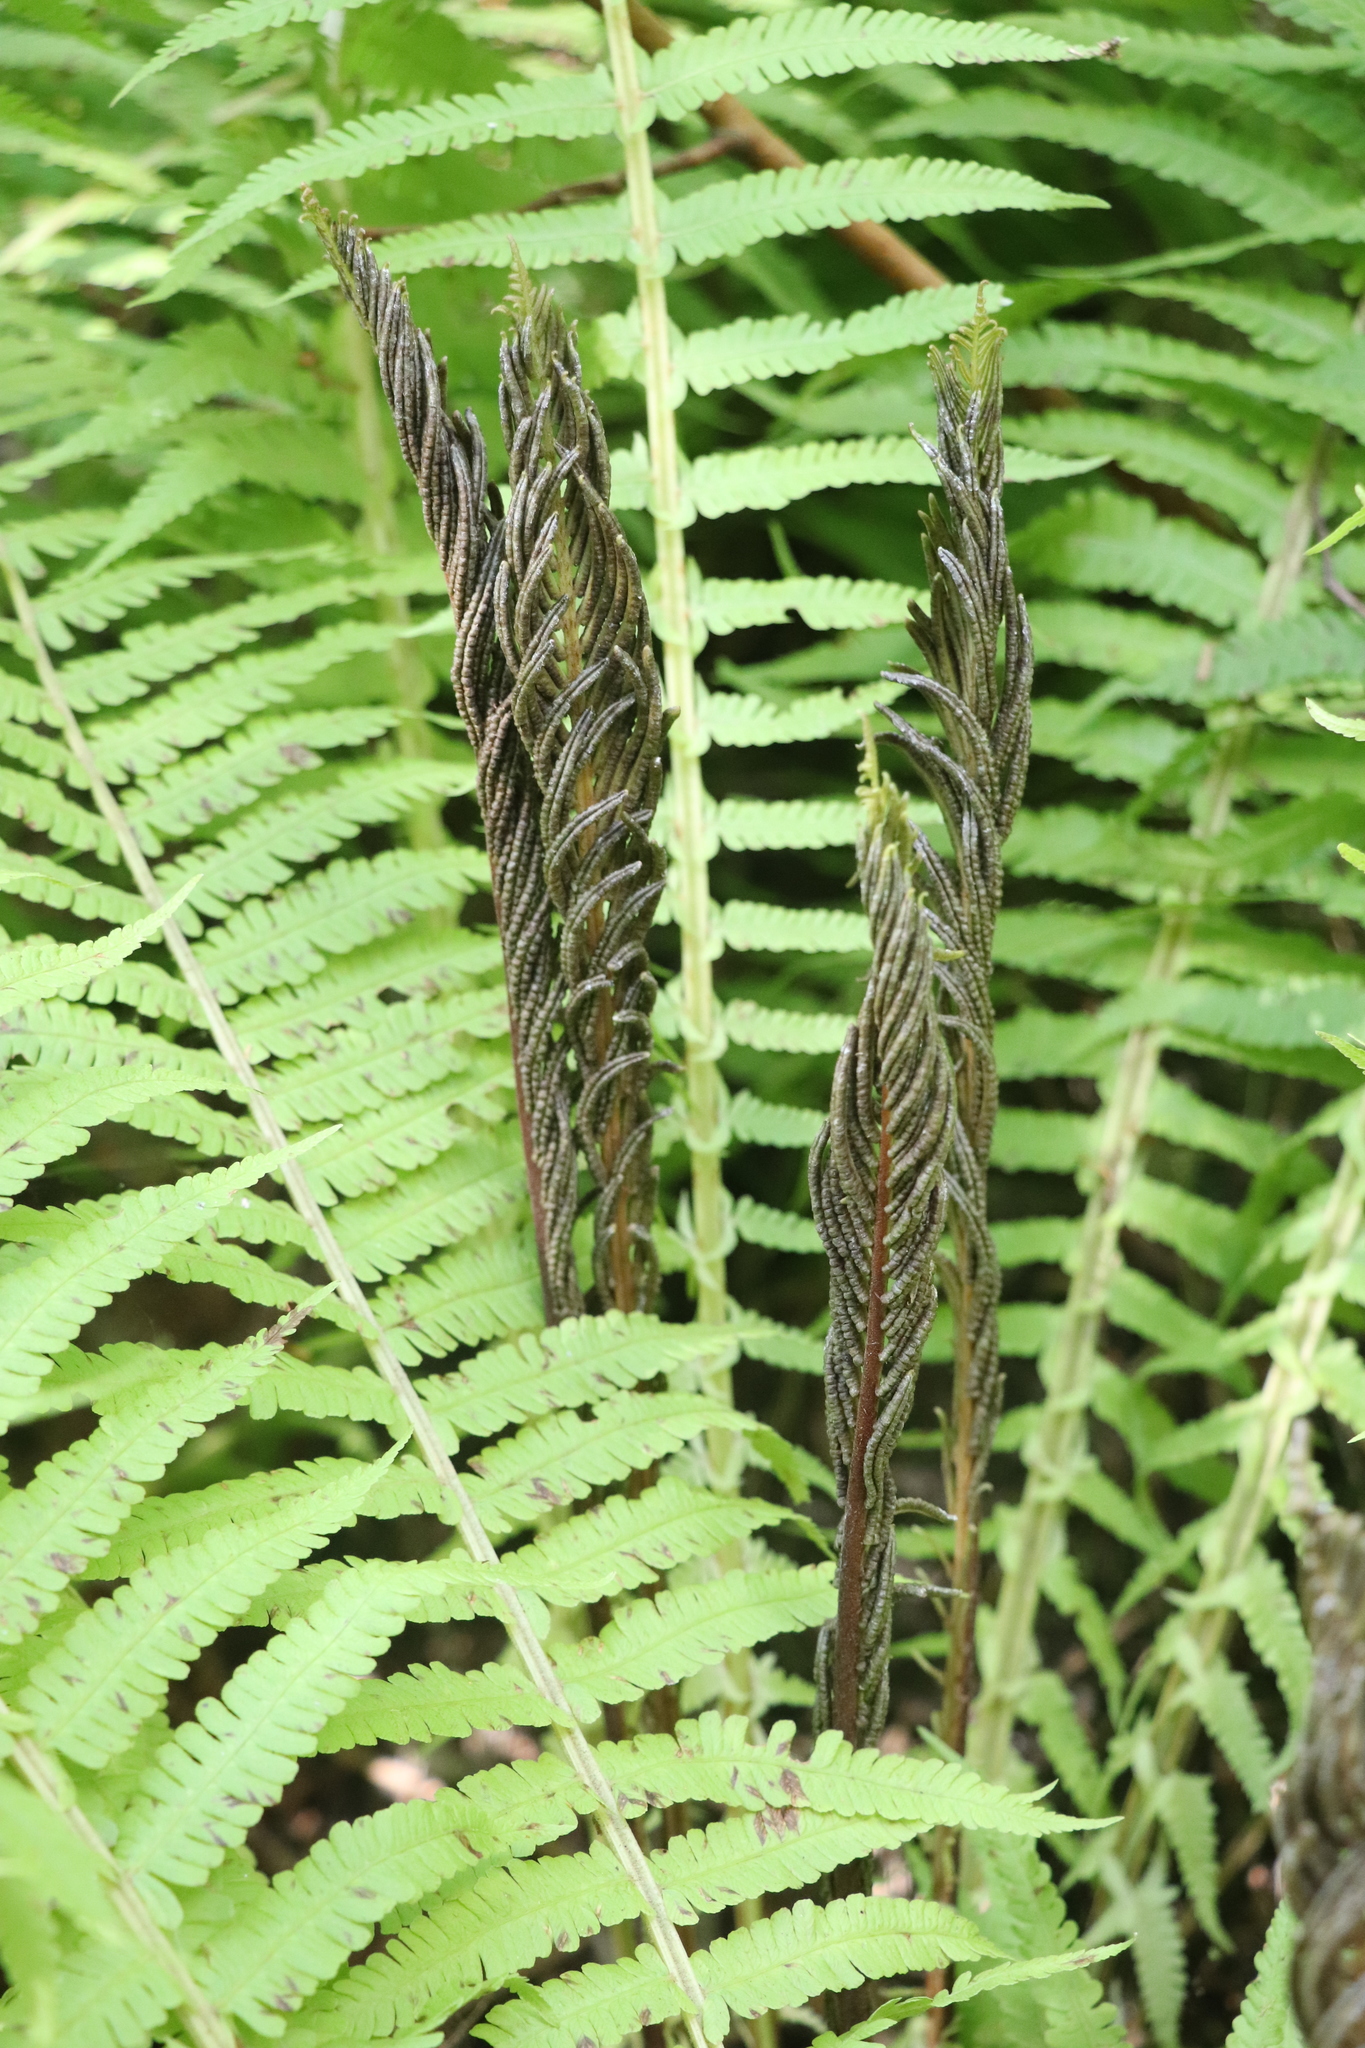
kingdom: Plantae
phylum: Tracheophyta
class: Polypodiopsida
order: Polypodiales
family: Onocleaceae
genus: Matteuccia
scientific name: Matteuccia struthiopteris
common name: Ostrich fern
